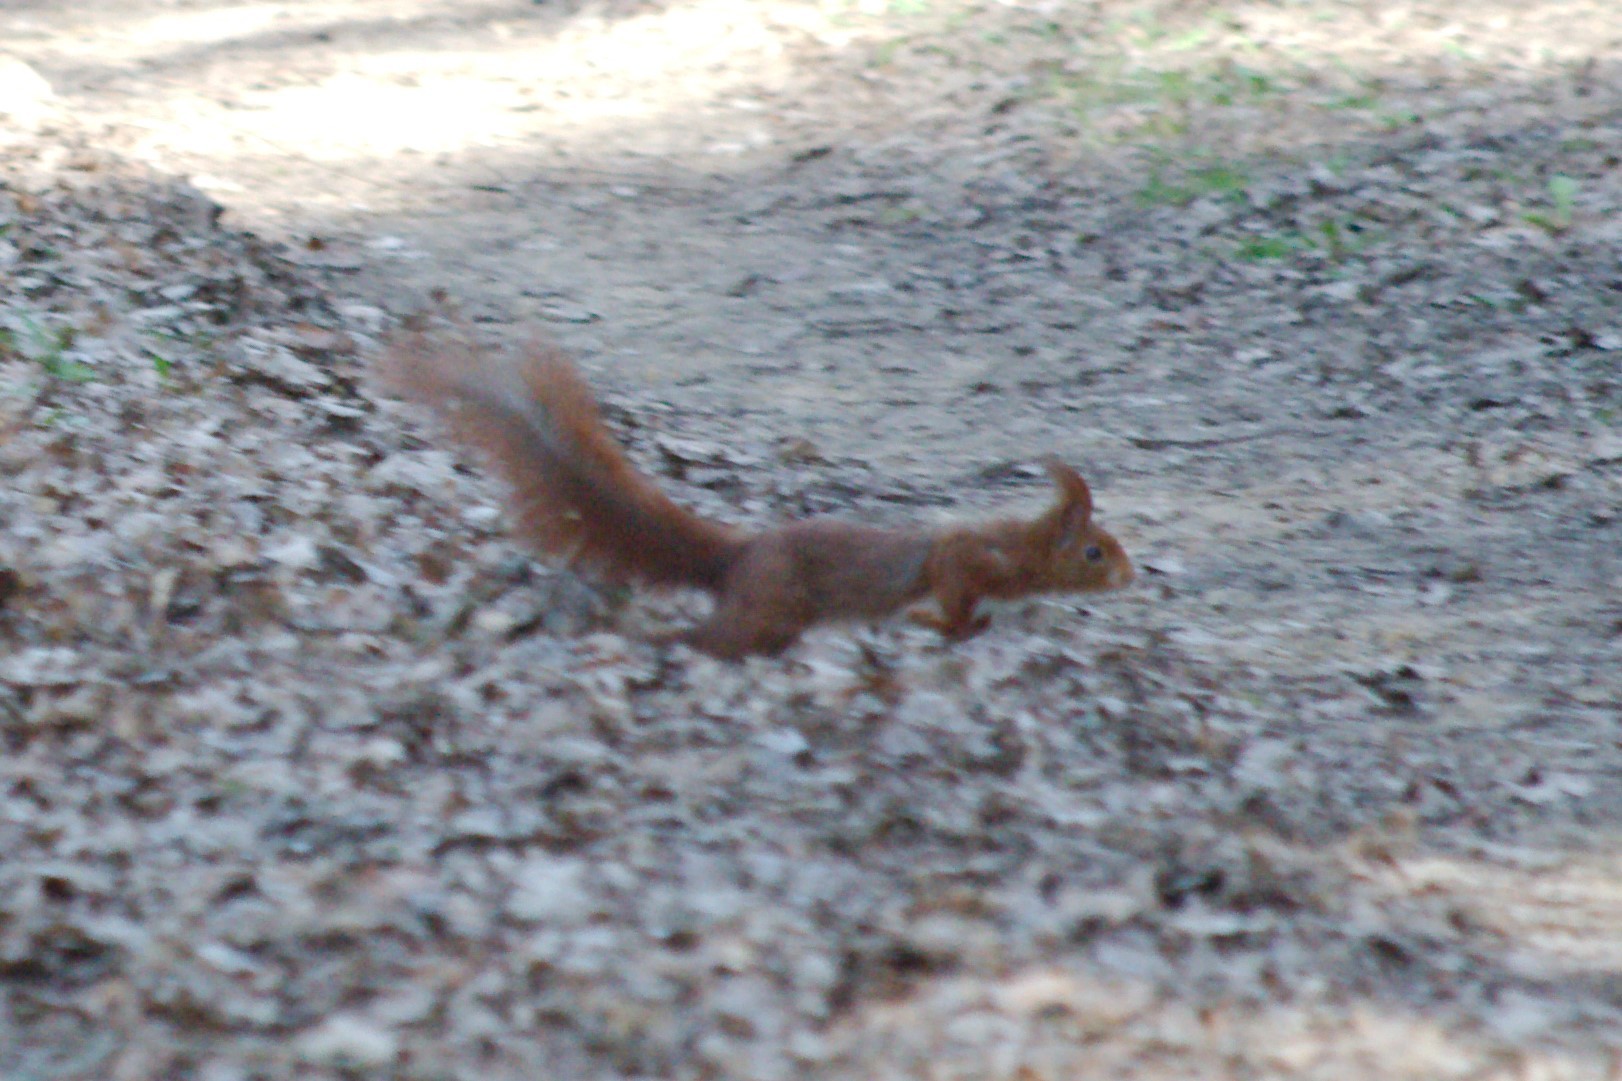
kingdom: Animalia
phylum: Chordata
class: Mammalia
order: Rodentia
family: Sciuridae
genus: Sciurus
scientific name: Sciurus vulgaris
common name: Eurasian red squirrel
